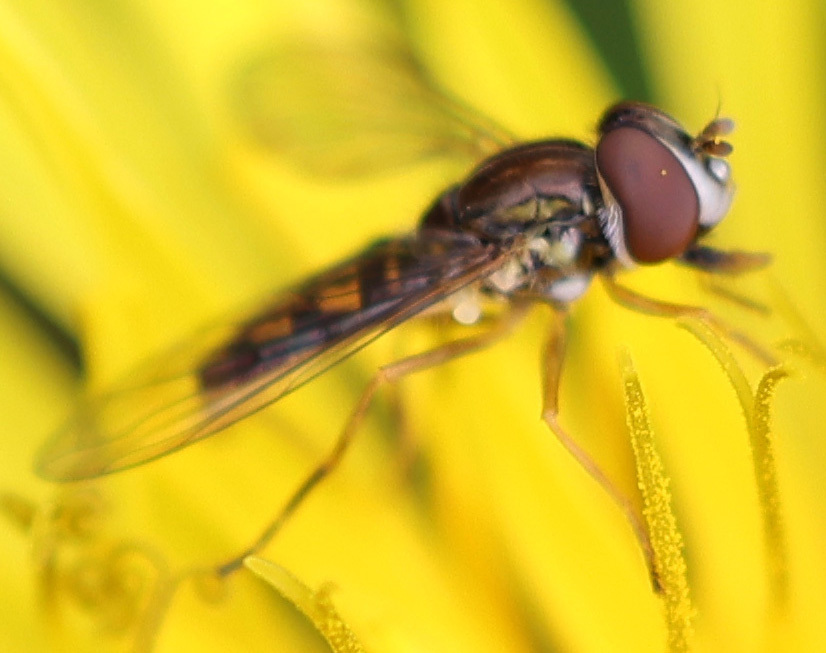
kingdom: Animalia
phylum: Arthropoda
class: Insecta
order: Diptera
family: Syrphidae
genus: Toxomerus
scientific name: Toxomerus marginatus
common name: Syrphid fly
